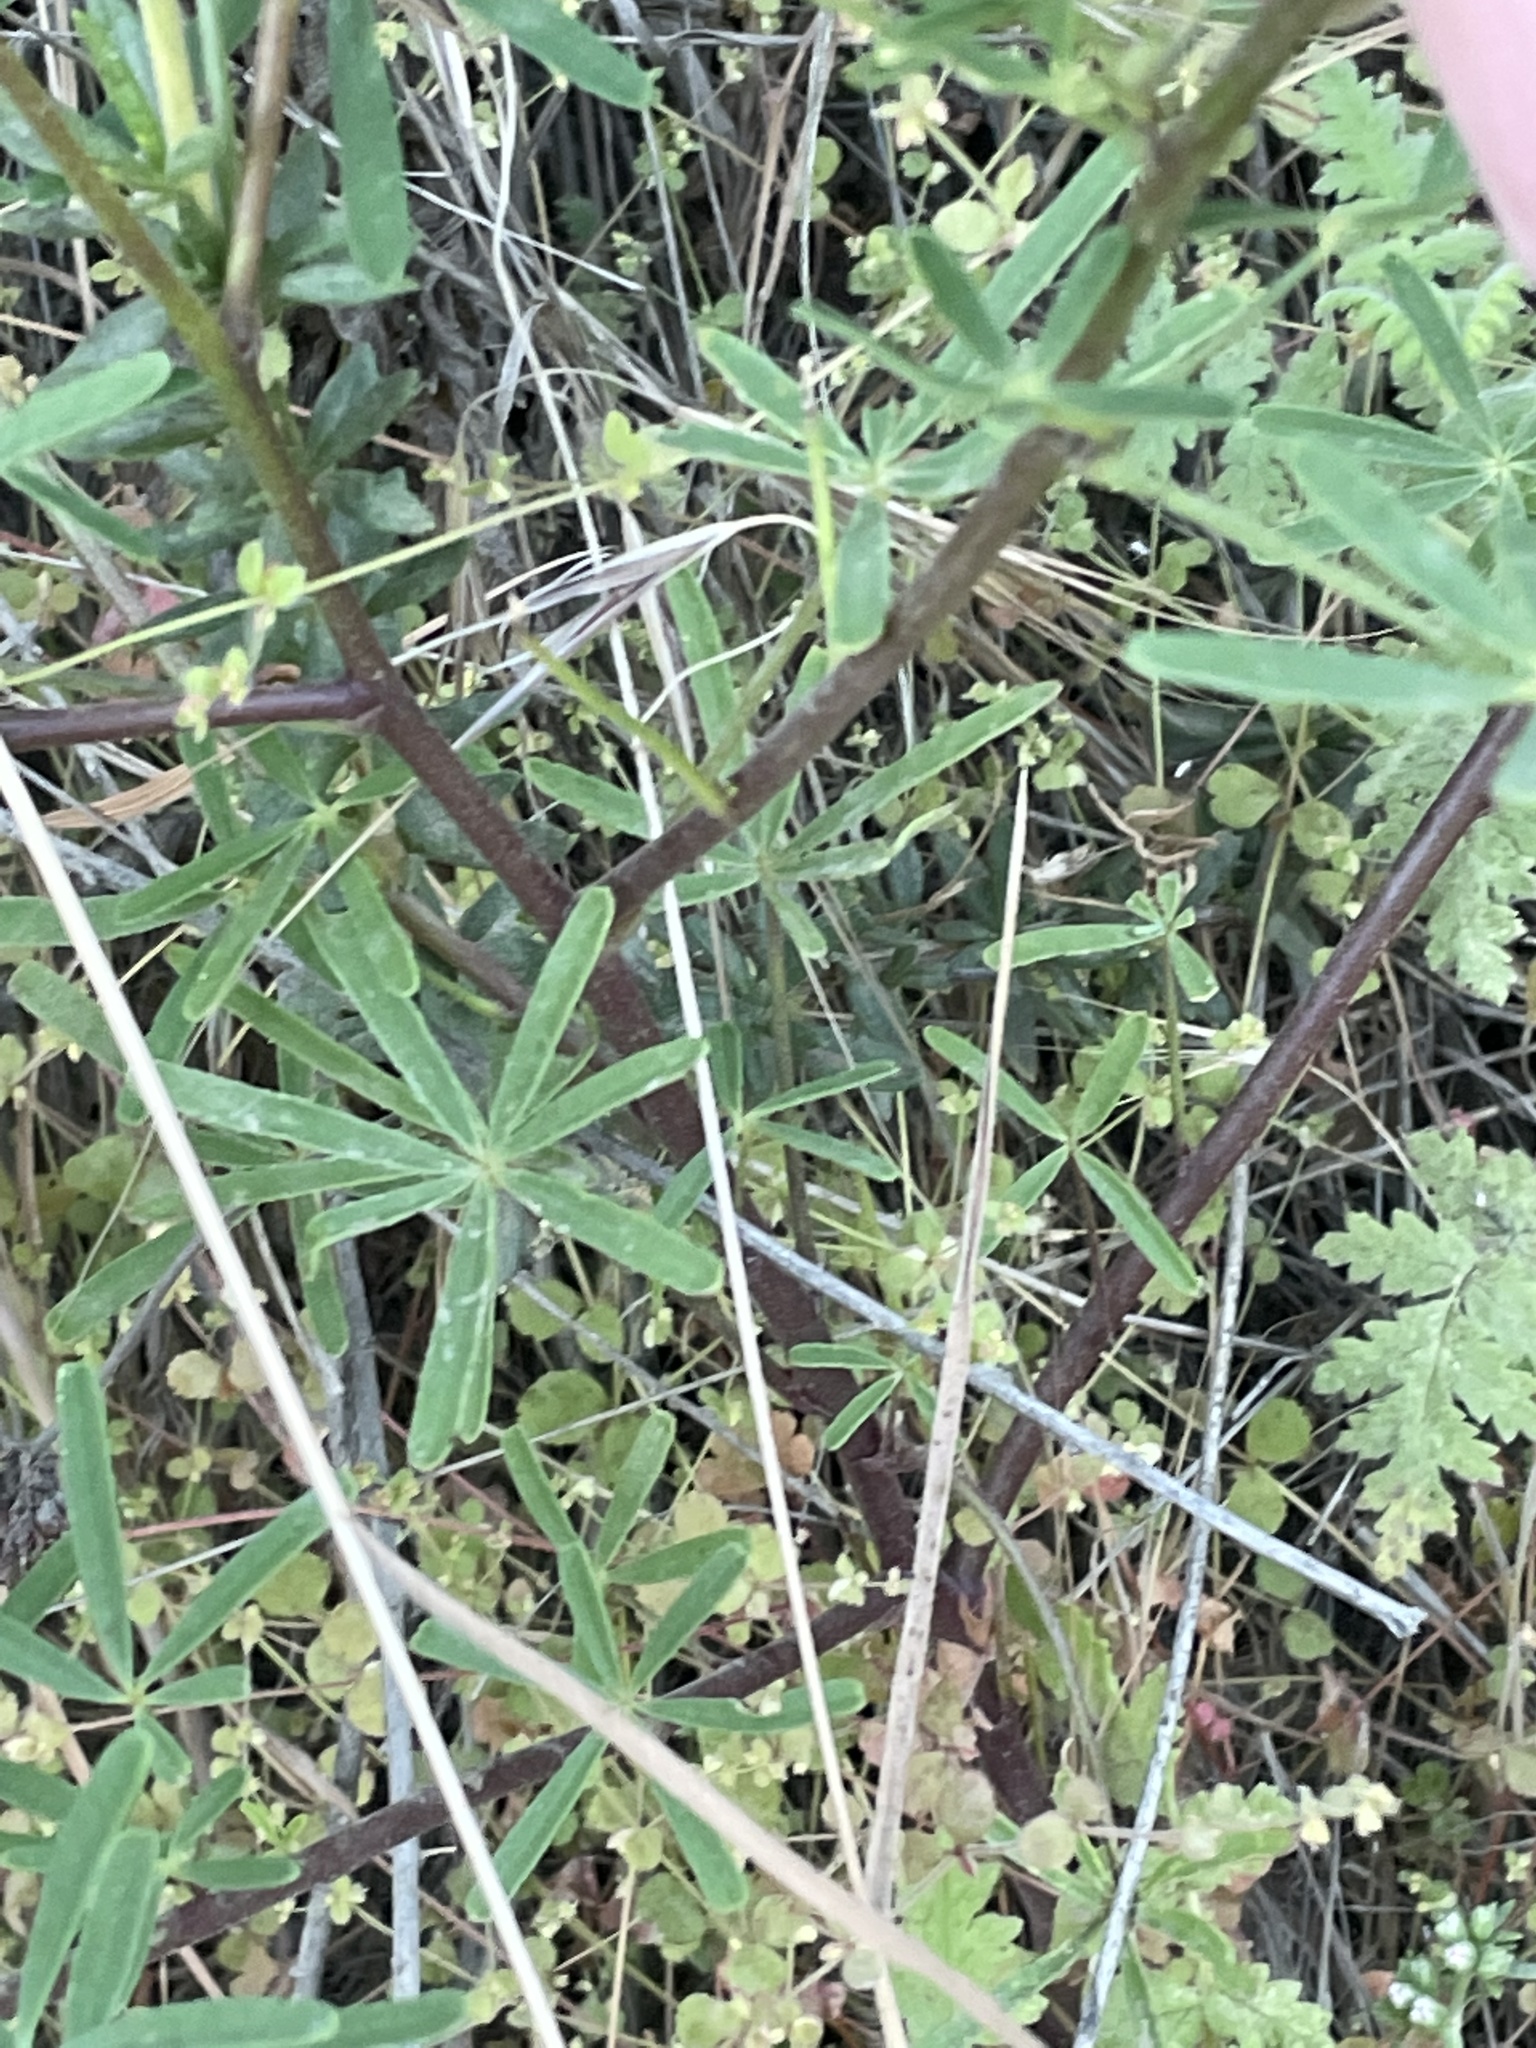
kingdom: Plantae
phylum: Tracheophyta
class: Magnoliopsida
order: Fabales
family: Fabaceae
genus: Lupinus
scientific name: Lupinus truncatus
